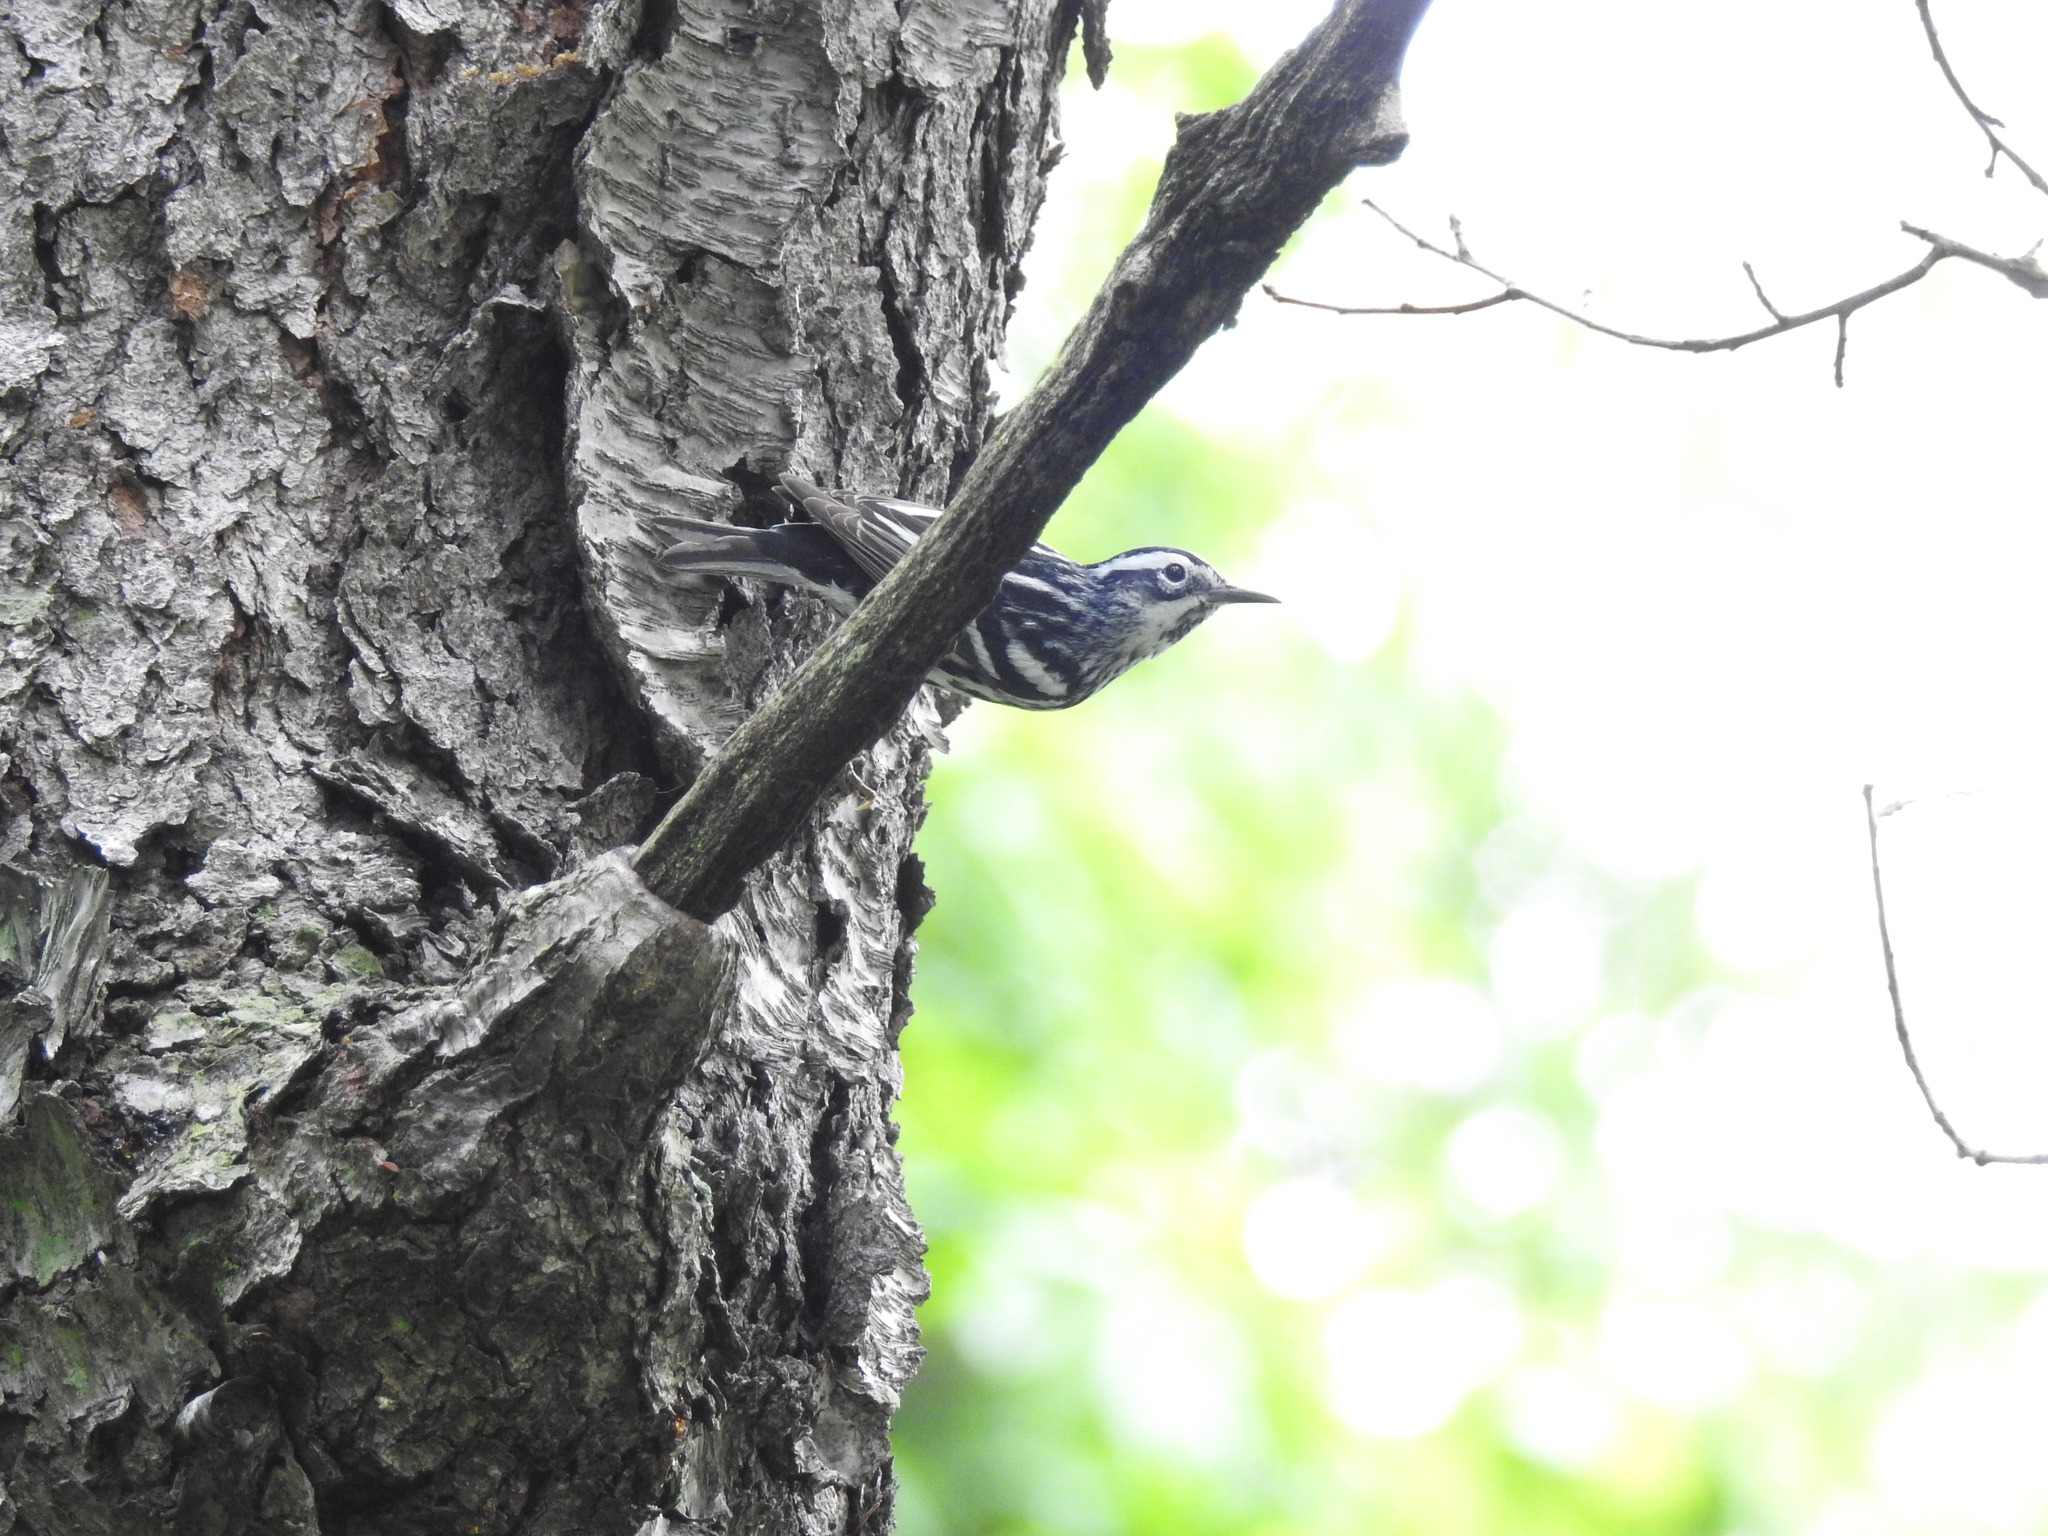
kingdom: Animalia
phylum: Chordata
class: Aves
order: Passeriformes
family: Parulidae
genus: Mniotilta
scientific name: Mniotilta varia
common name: Black-and-white warbler
